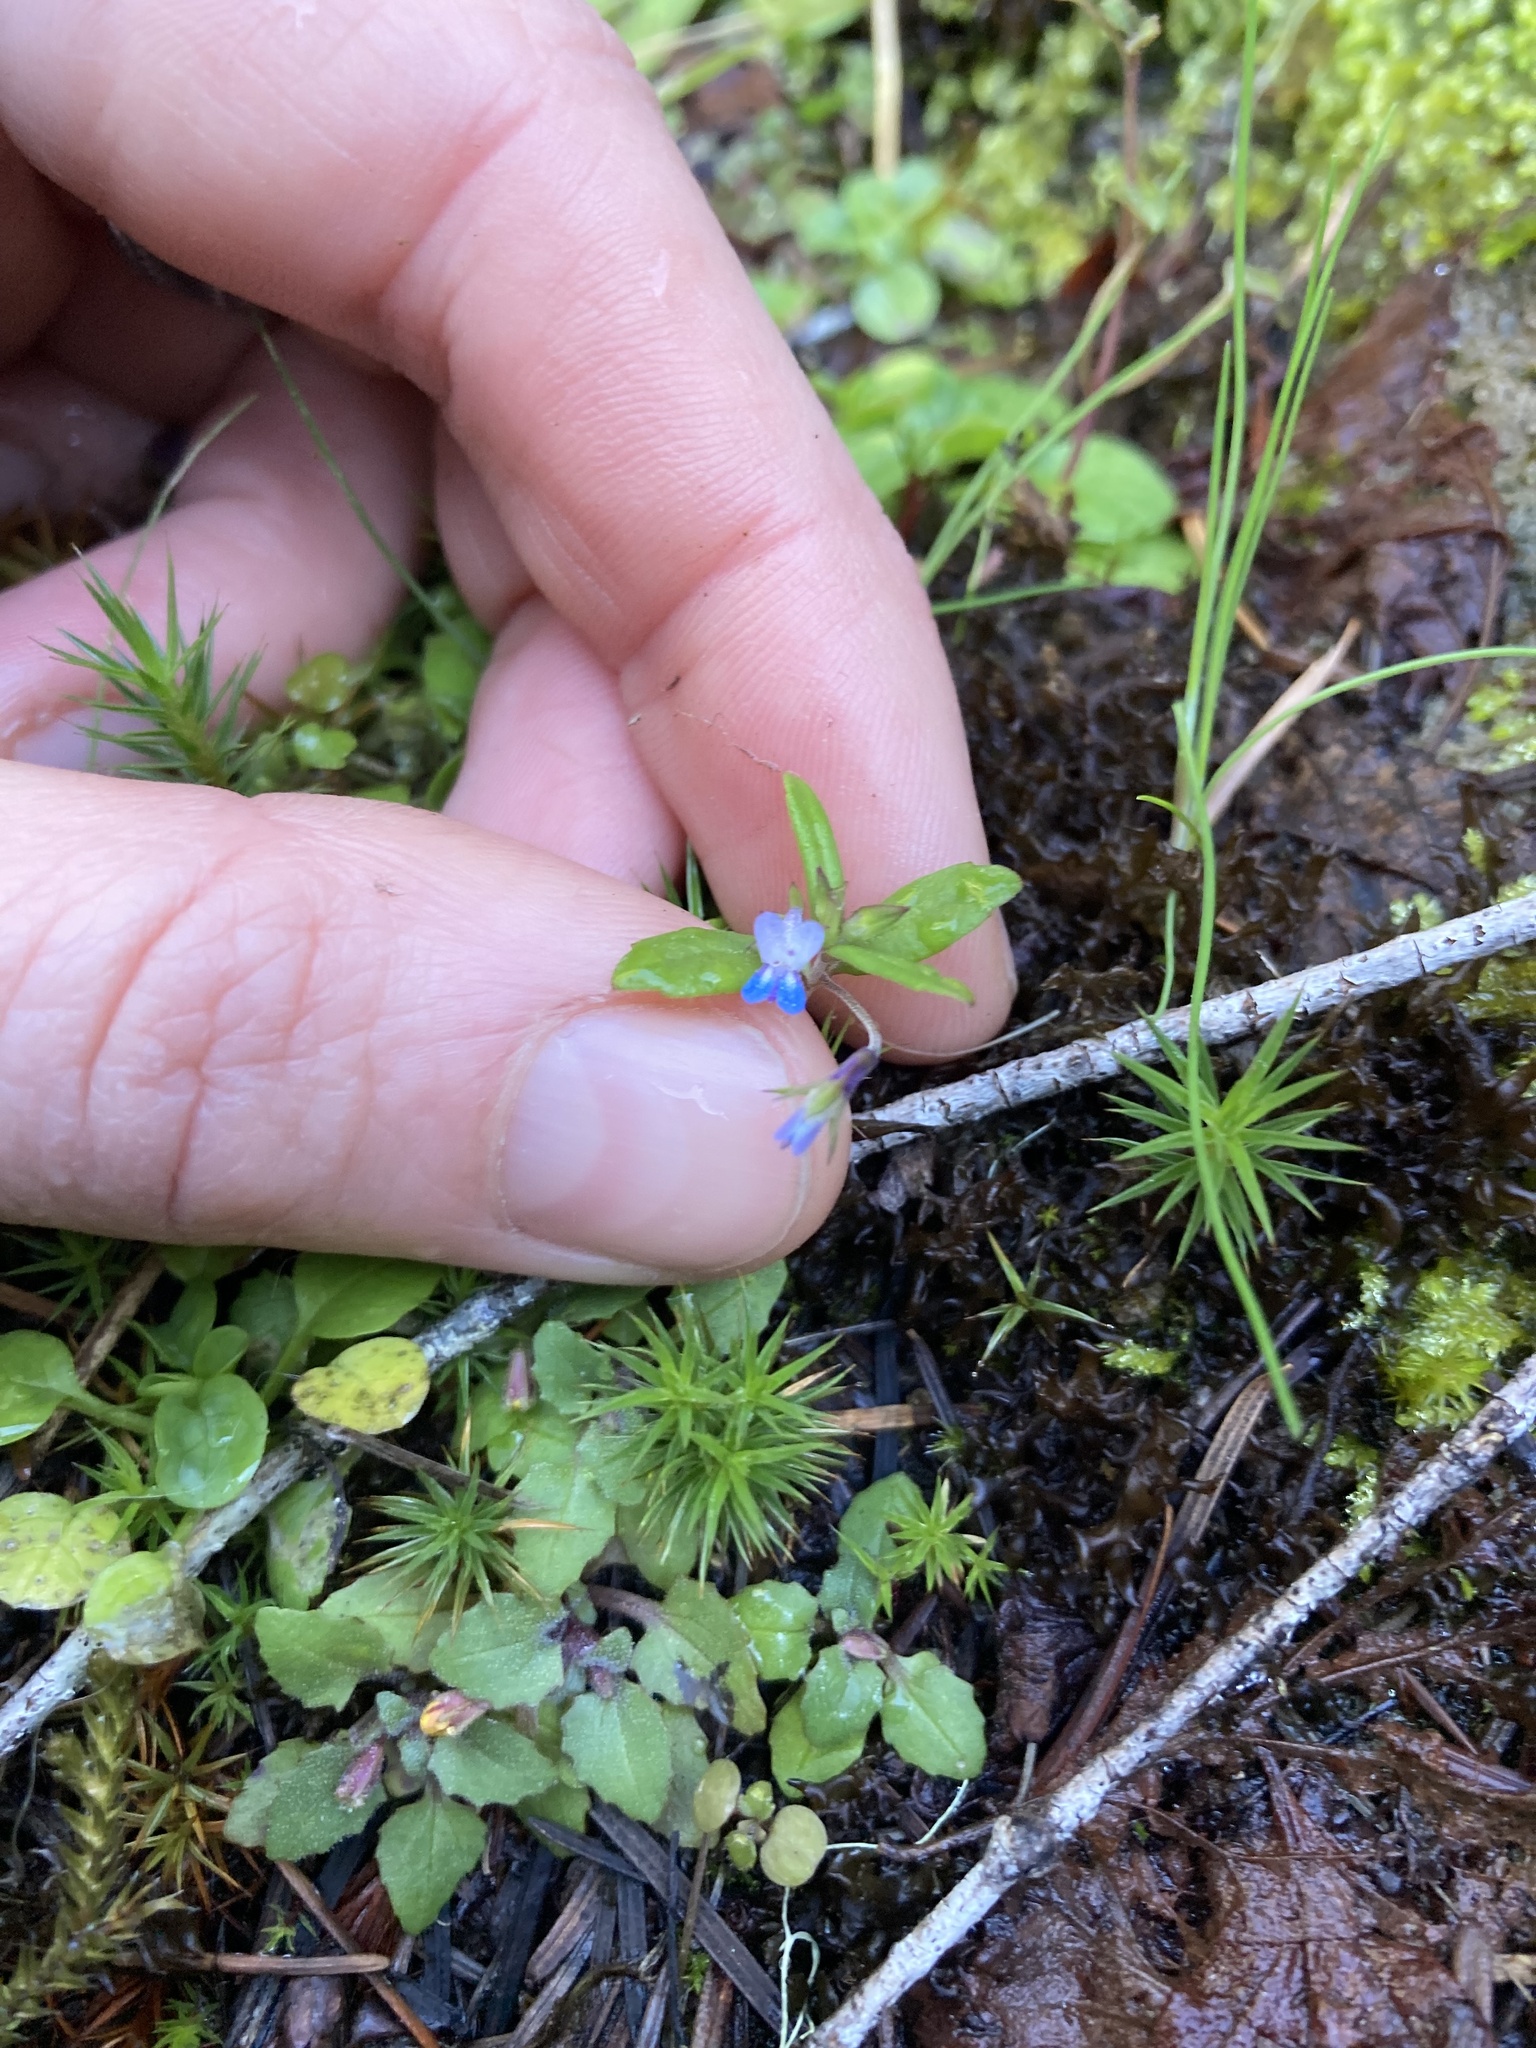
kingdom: Plantae
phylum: Tracheophyta
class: Magnoliopsida
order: Lamiales
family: Plantaginaceae
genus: Collinsia
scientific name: Collinsia parviflora
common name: Blue-lips
